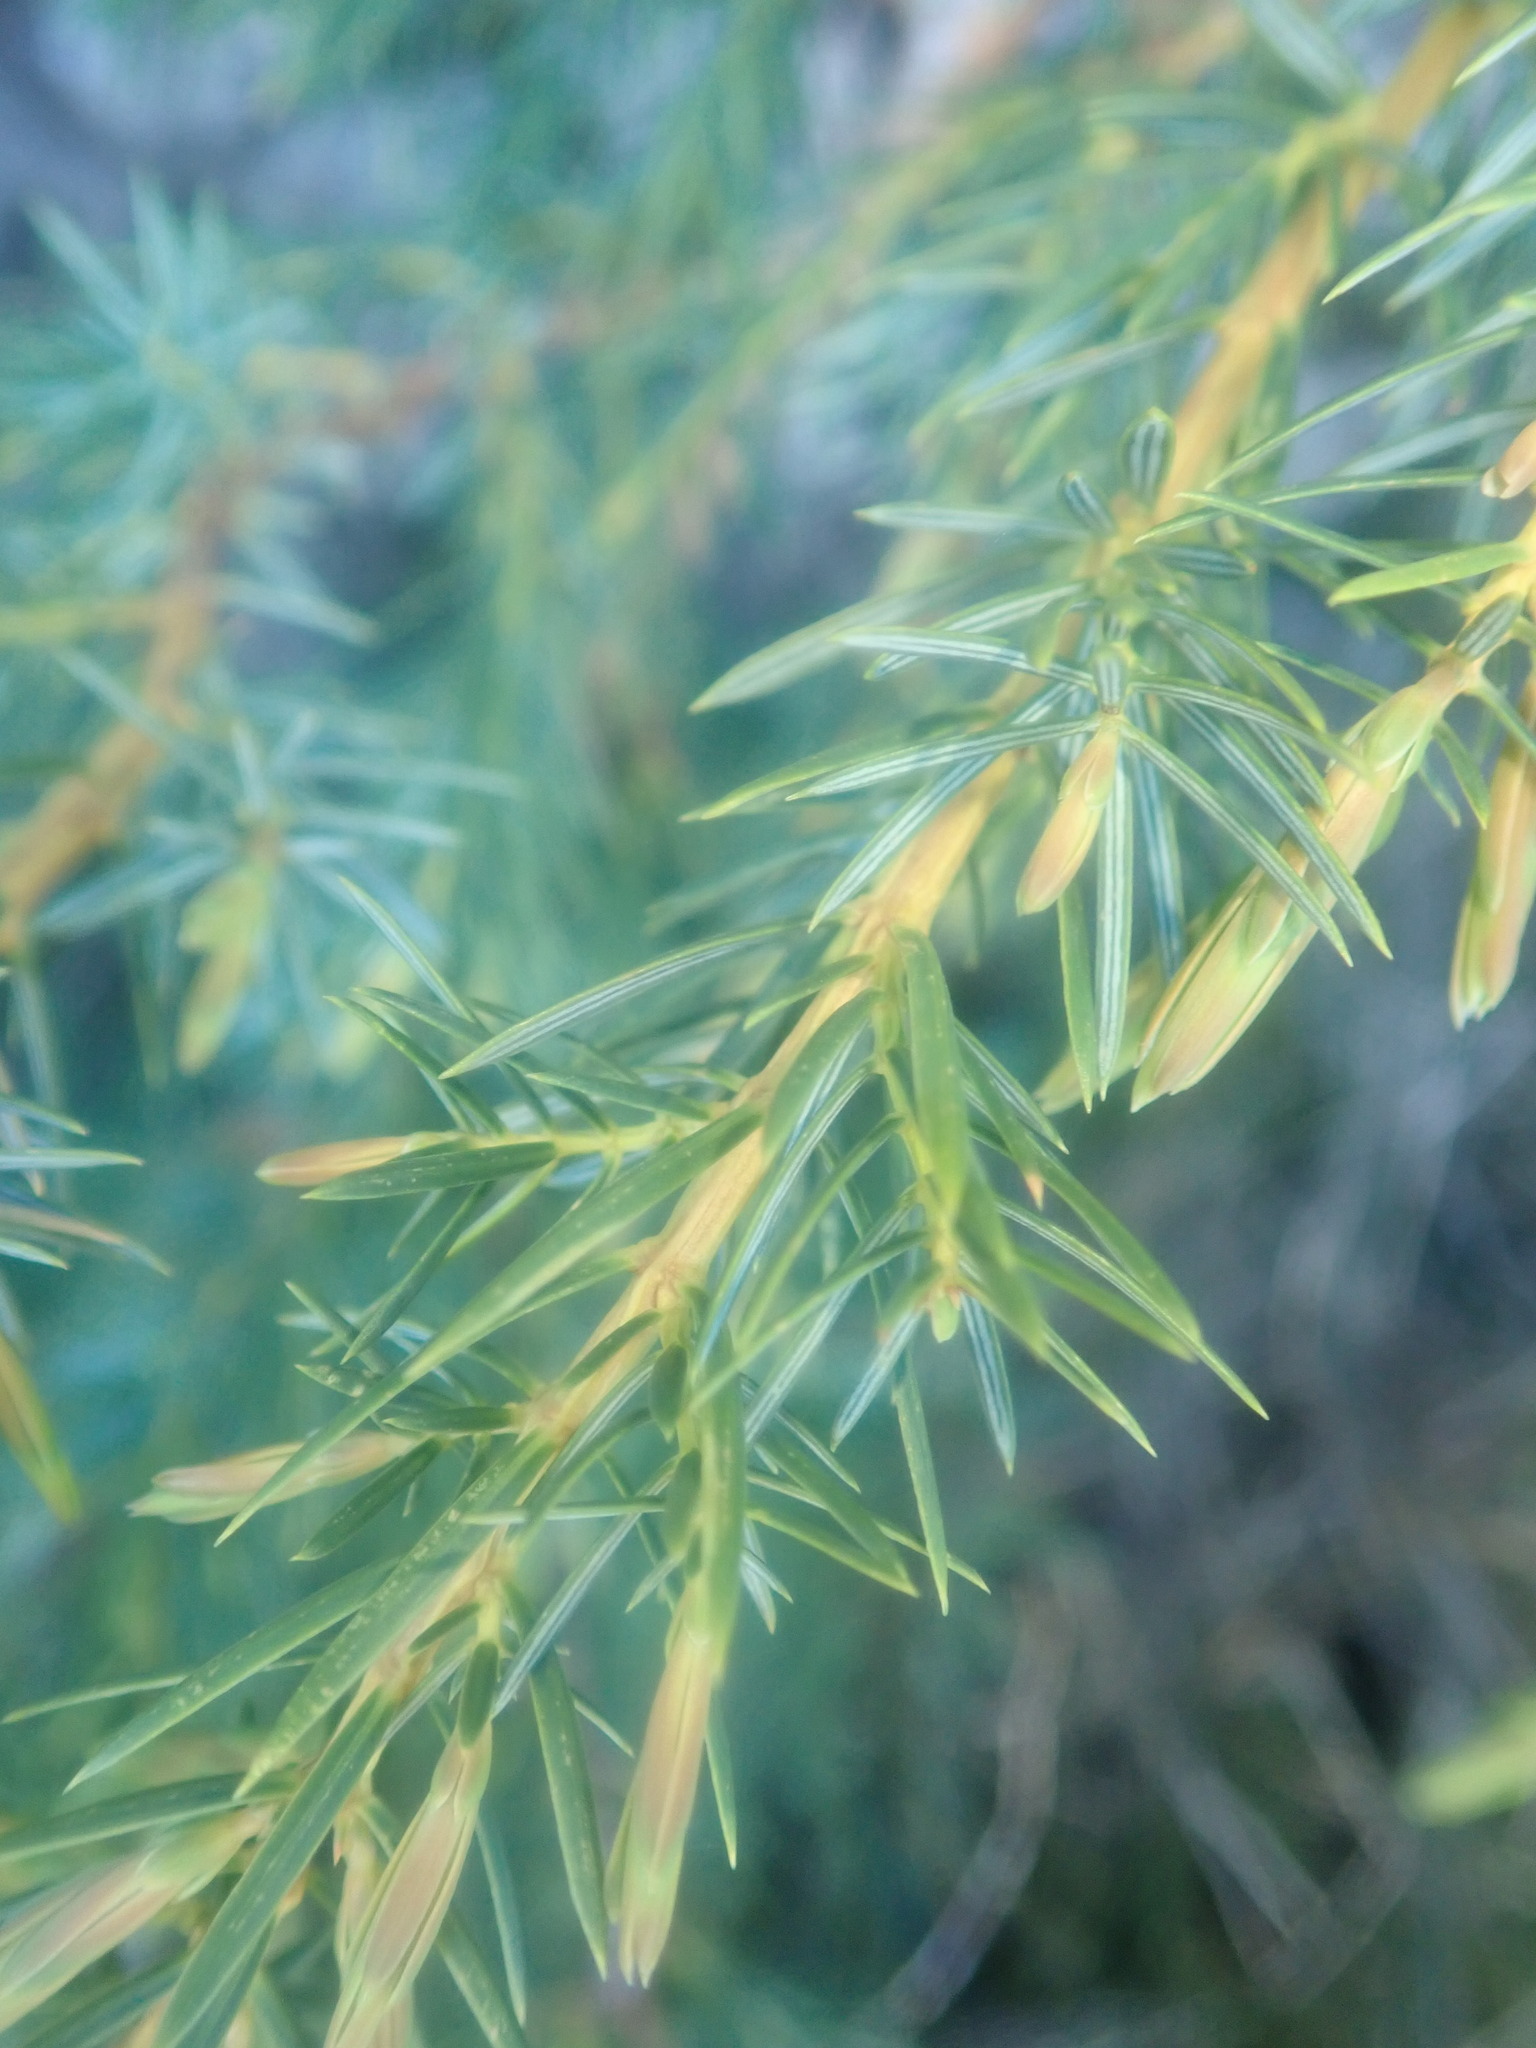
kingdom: Plantae
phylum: Tracheophyta
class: Pinopsida
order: Pinales
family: Cupressaceae
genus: Juniperus
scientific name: Juniperus cedrus
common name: Canary islands juniper
